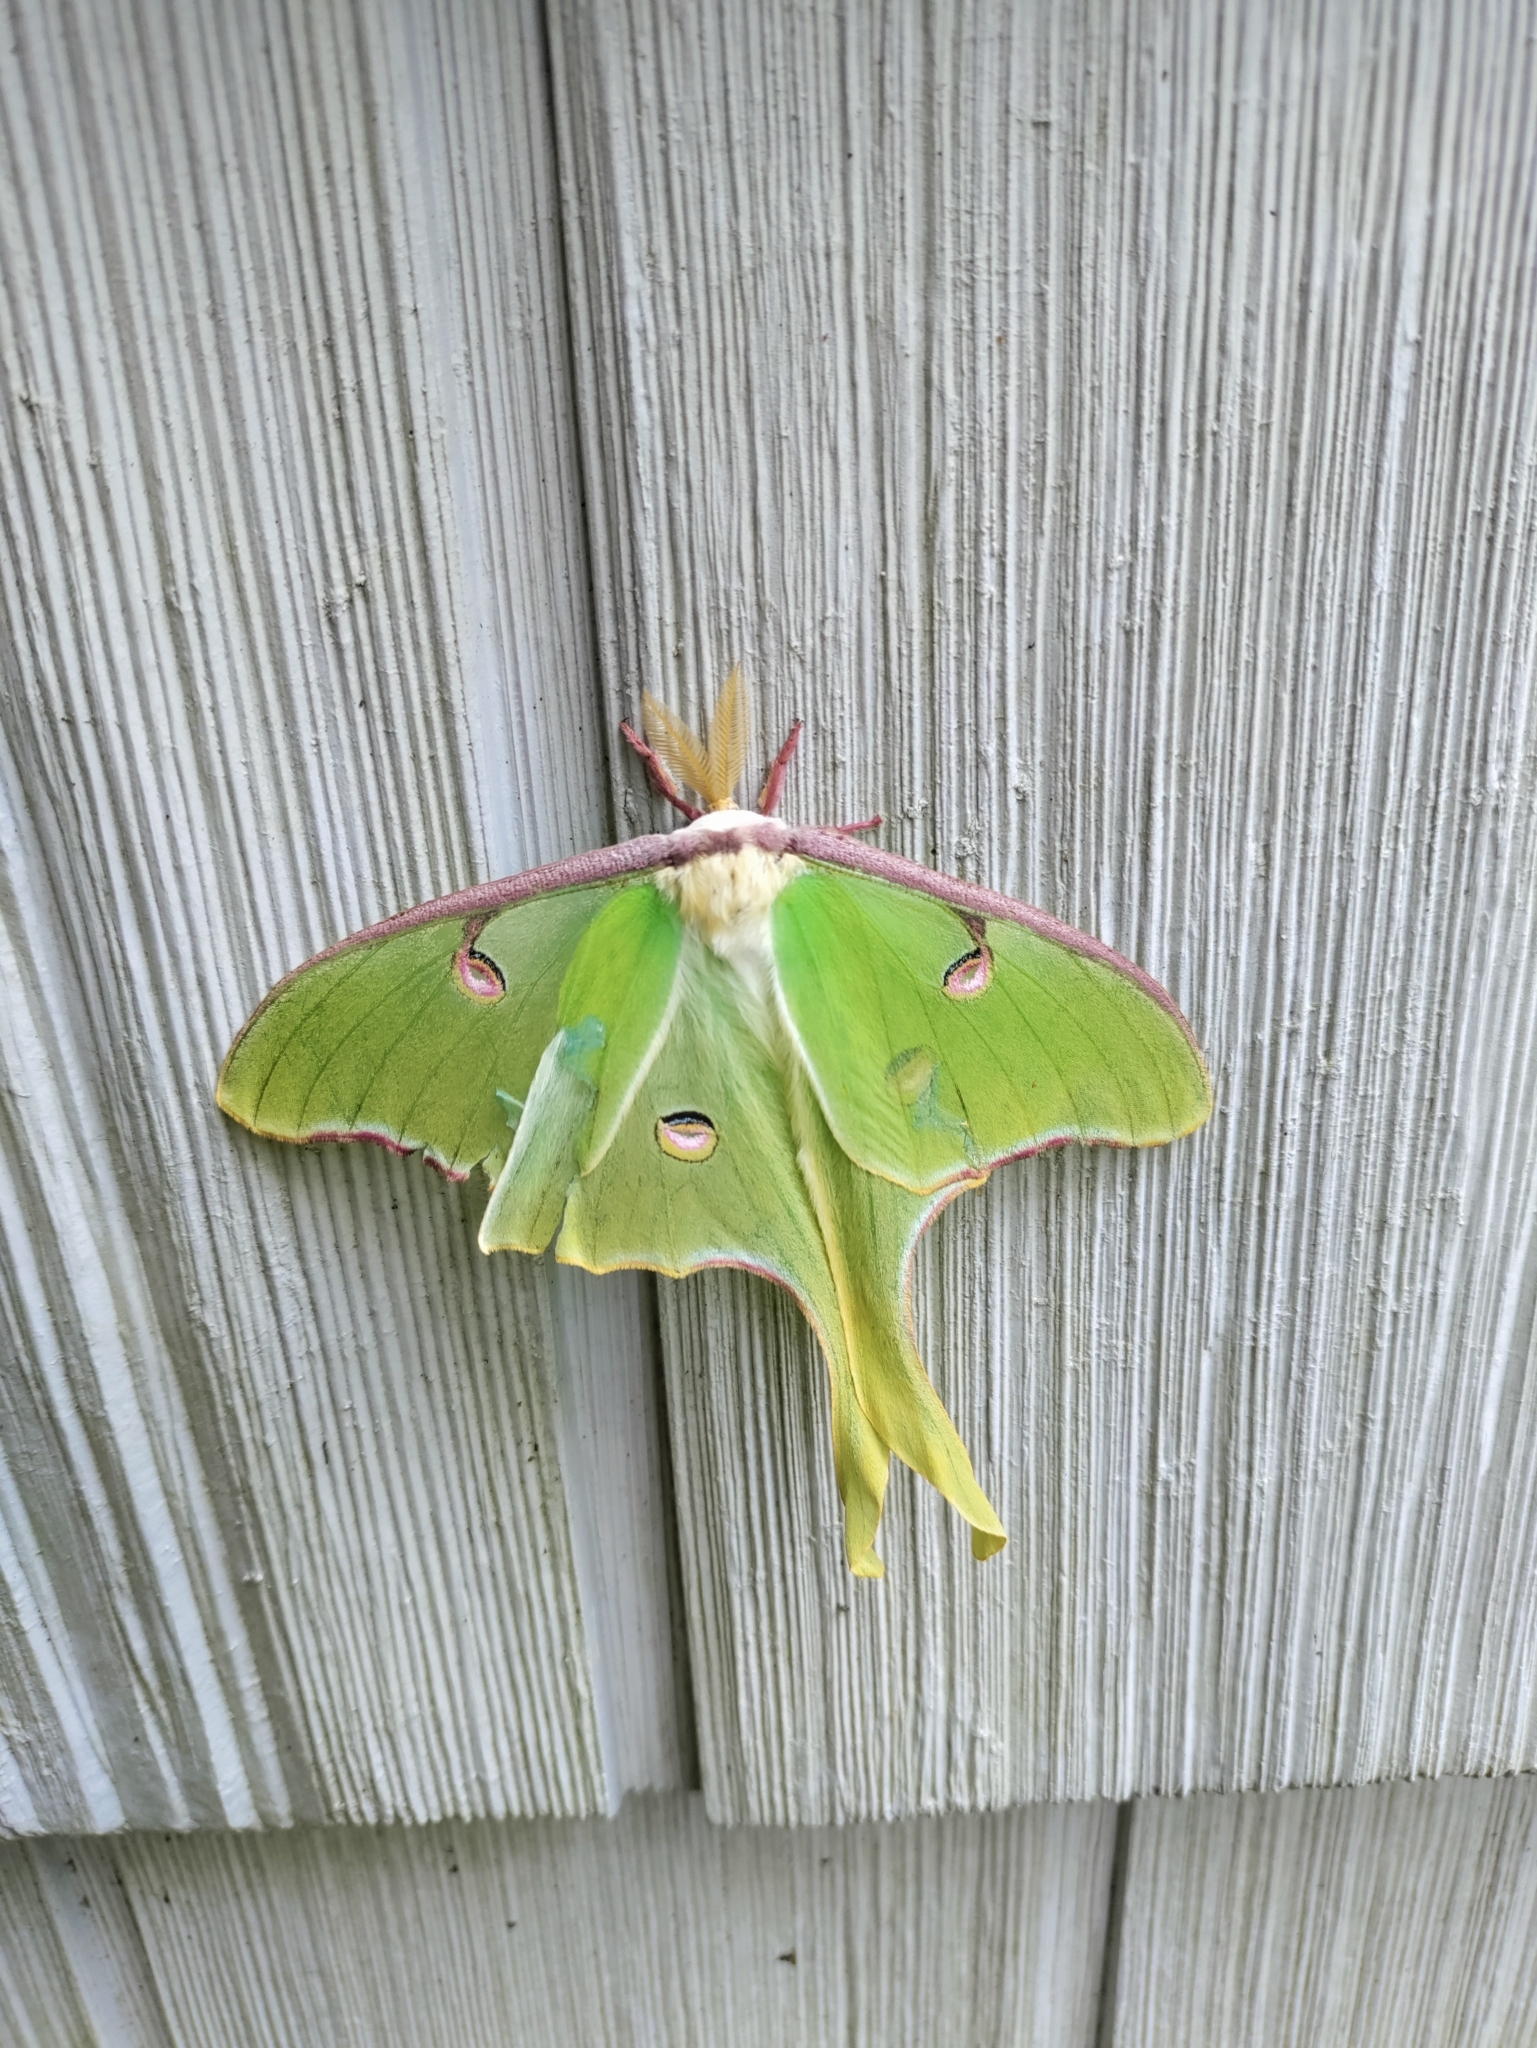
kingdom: Animalia
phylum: Arthropoda
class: Insecta
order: Lepidoptera
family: Saturniidae
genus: Actias
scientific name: Actias luna
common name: Luna moth
